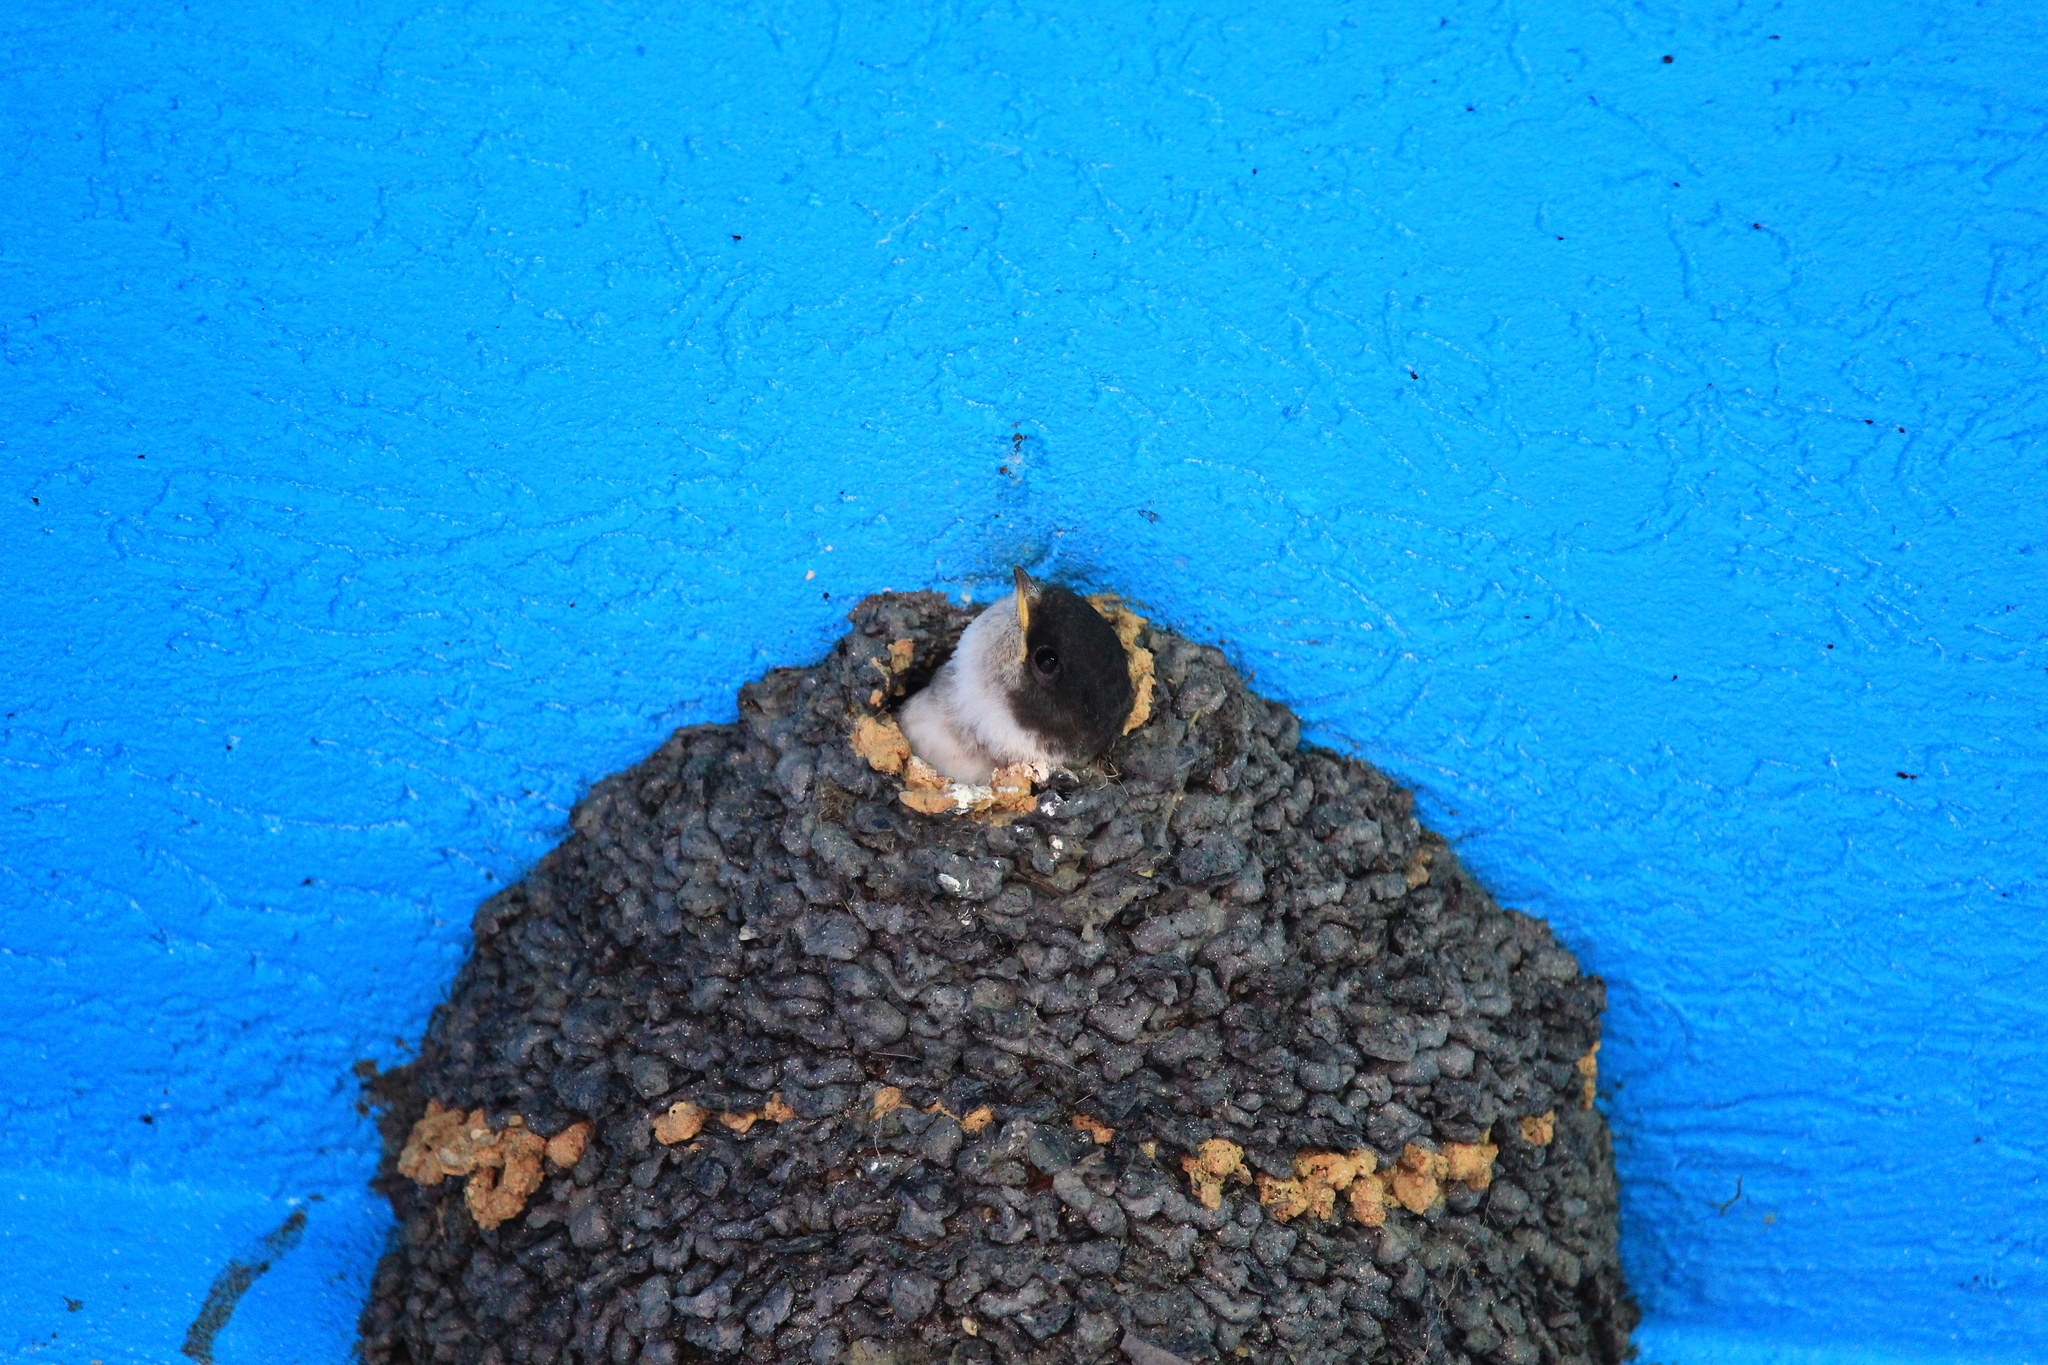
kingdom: Animalia
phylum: Chordata
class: Aves
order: Passeriformes
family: Hirundinidae
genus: Delichon
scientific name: Delichon urbicum
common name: Common house martin
